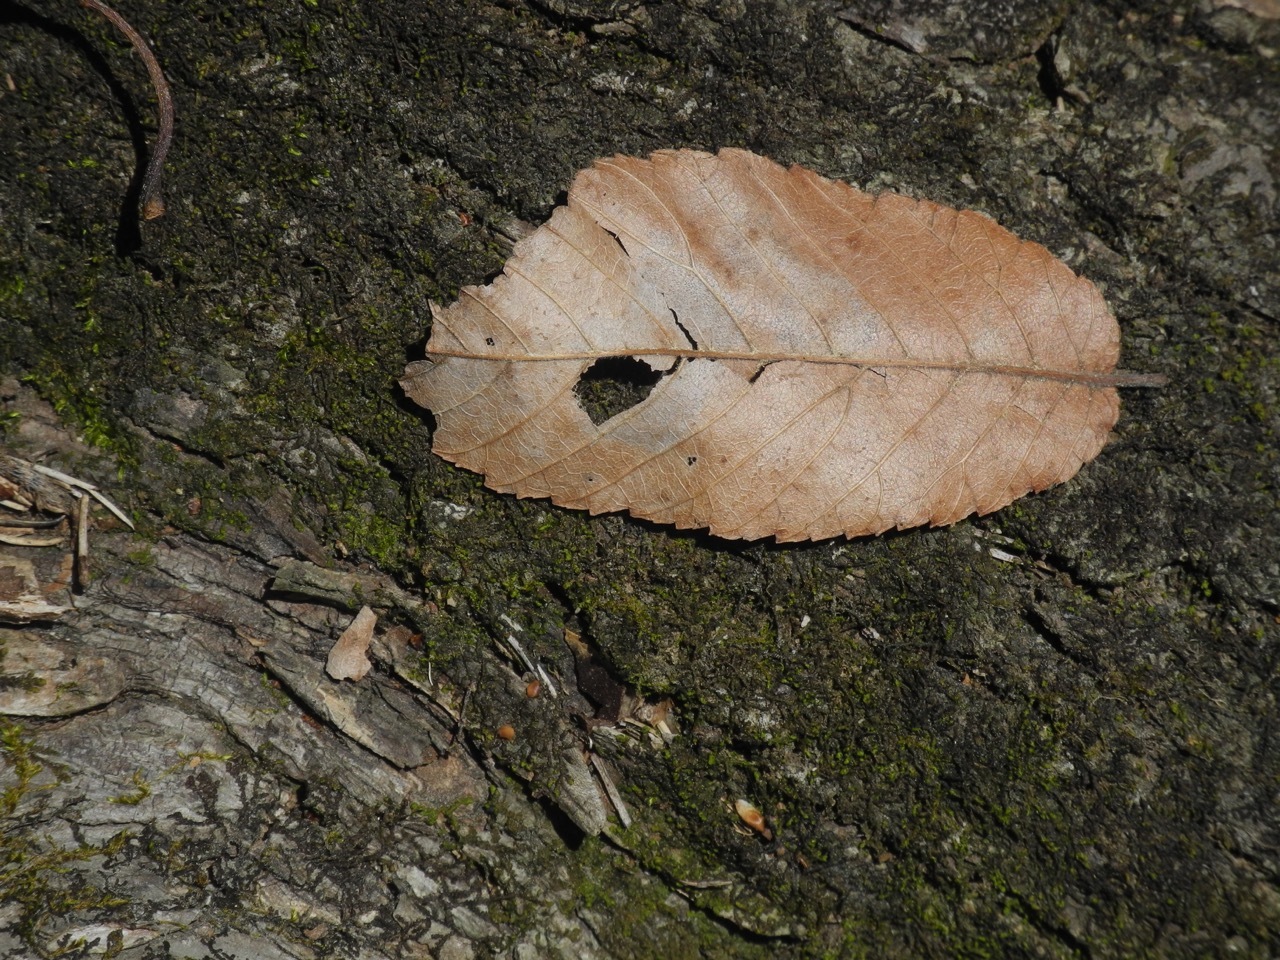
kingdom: Plantae
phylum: Tracheophyta
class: Magnoliopsida
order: Rosales
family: Ulmaceae
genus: Ulmus
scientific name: Ulmus rubra
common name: Slippery elm
